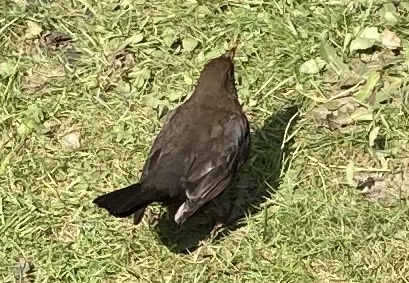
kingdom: Animalia
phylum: Chordata
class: Aves
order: Passeriformes
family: Turdidae
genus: Turdus
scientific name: Turdus merula
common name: Common blackbird
